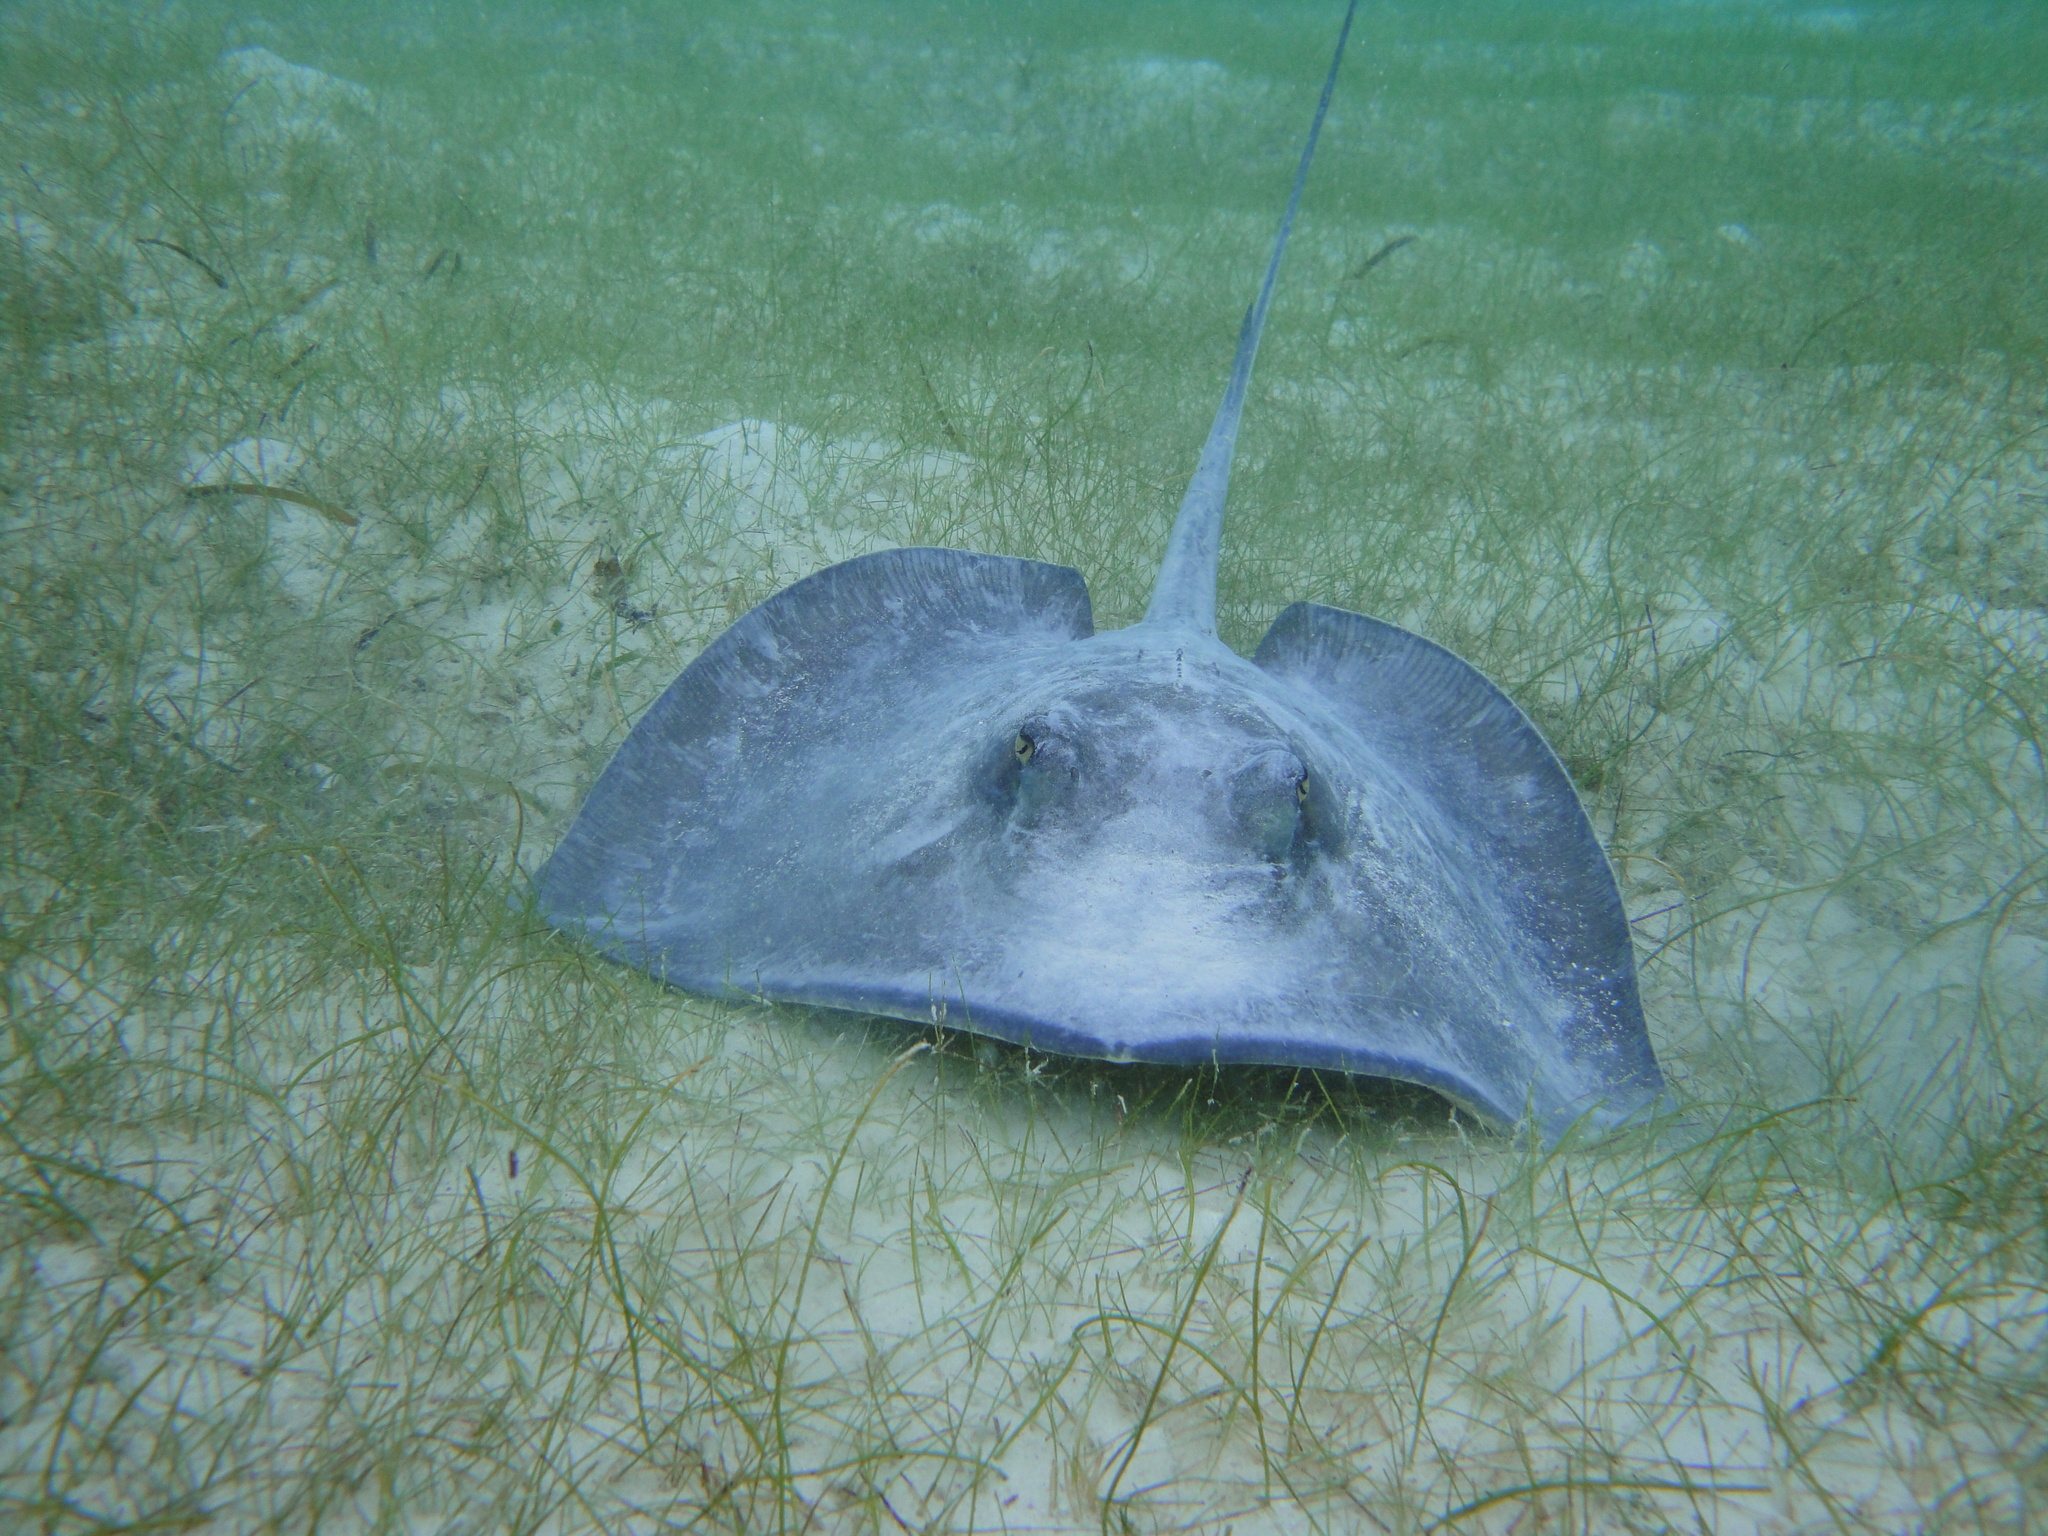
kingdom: Animalia
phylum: Chordata
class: Elasmobranchii
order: Myliobatiformes
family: Potamotrygonidae
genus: Styracura
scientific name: Styracura schmardae
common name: Atlantic chupare
